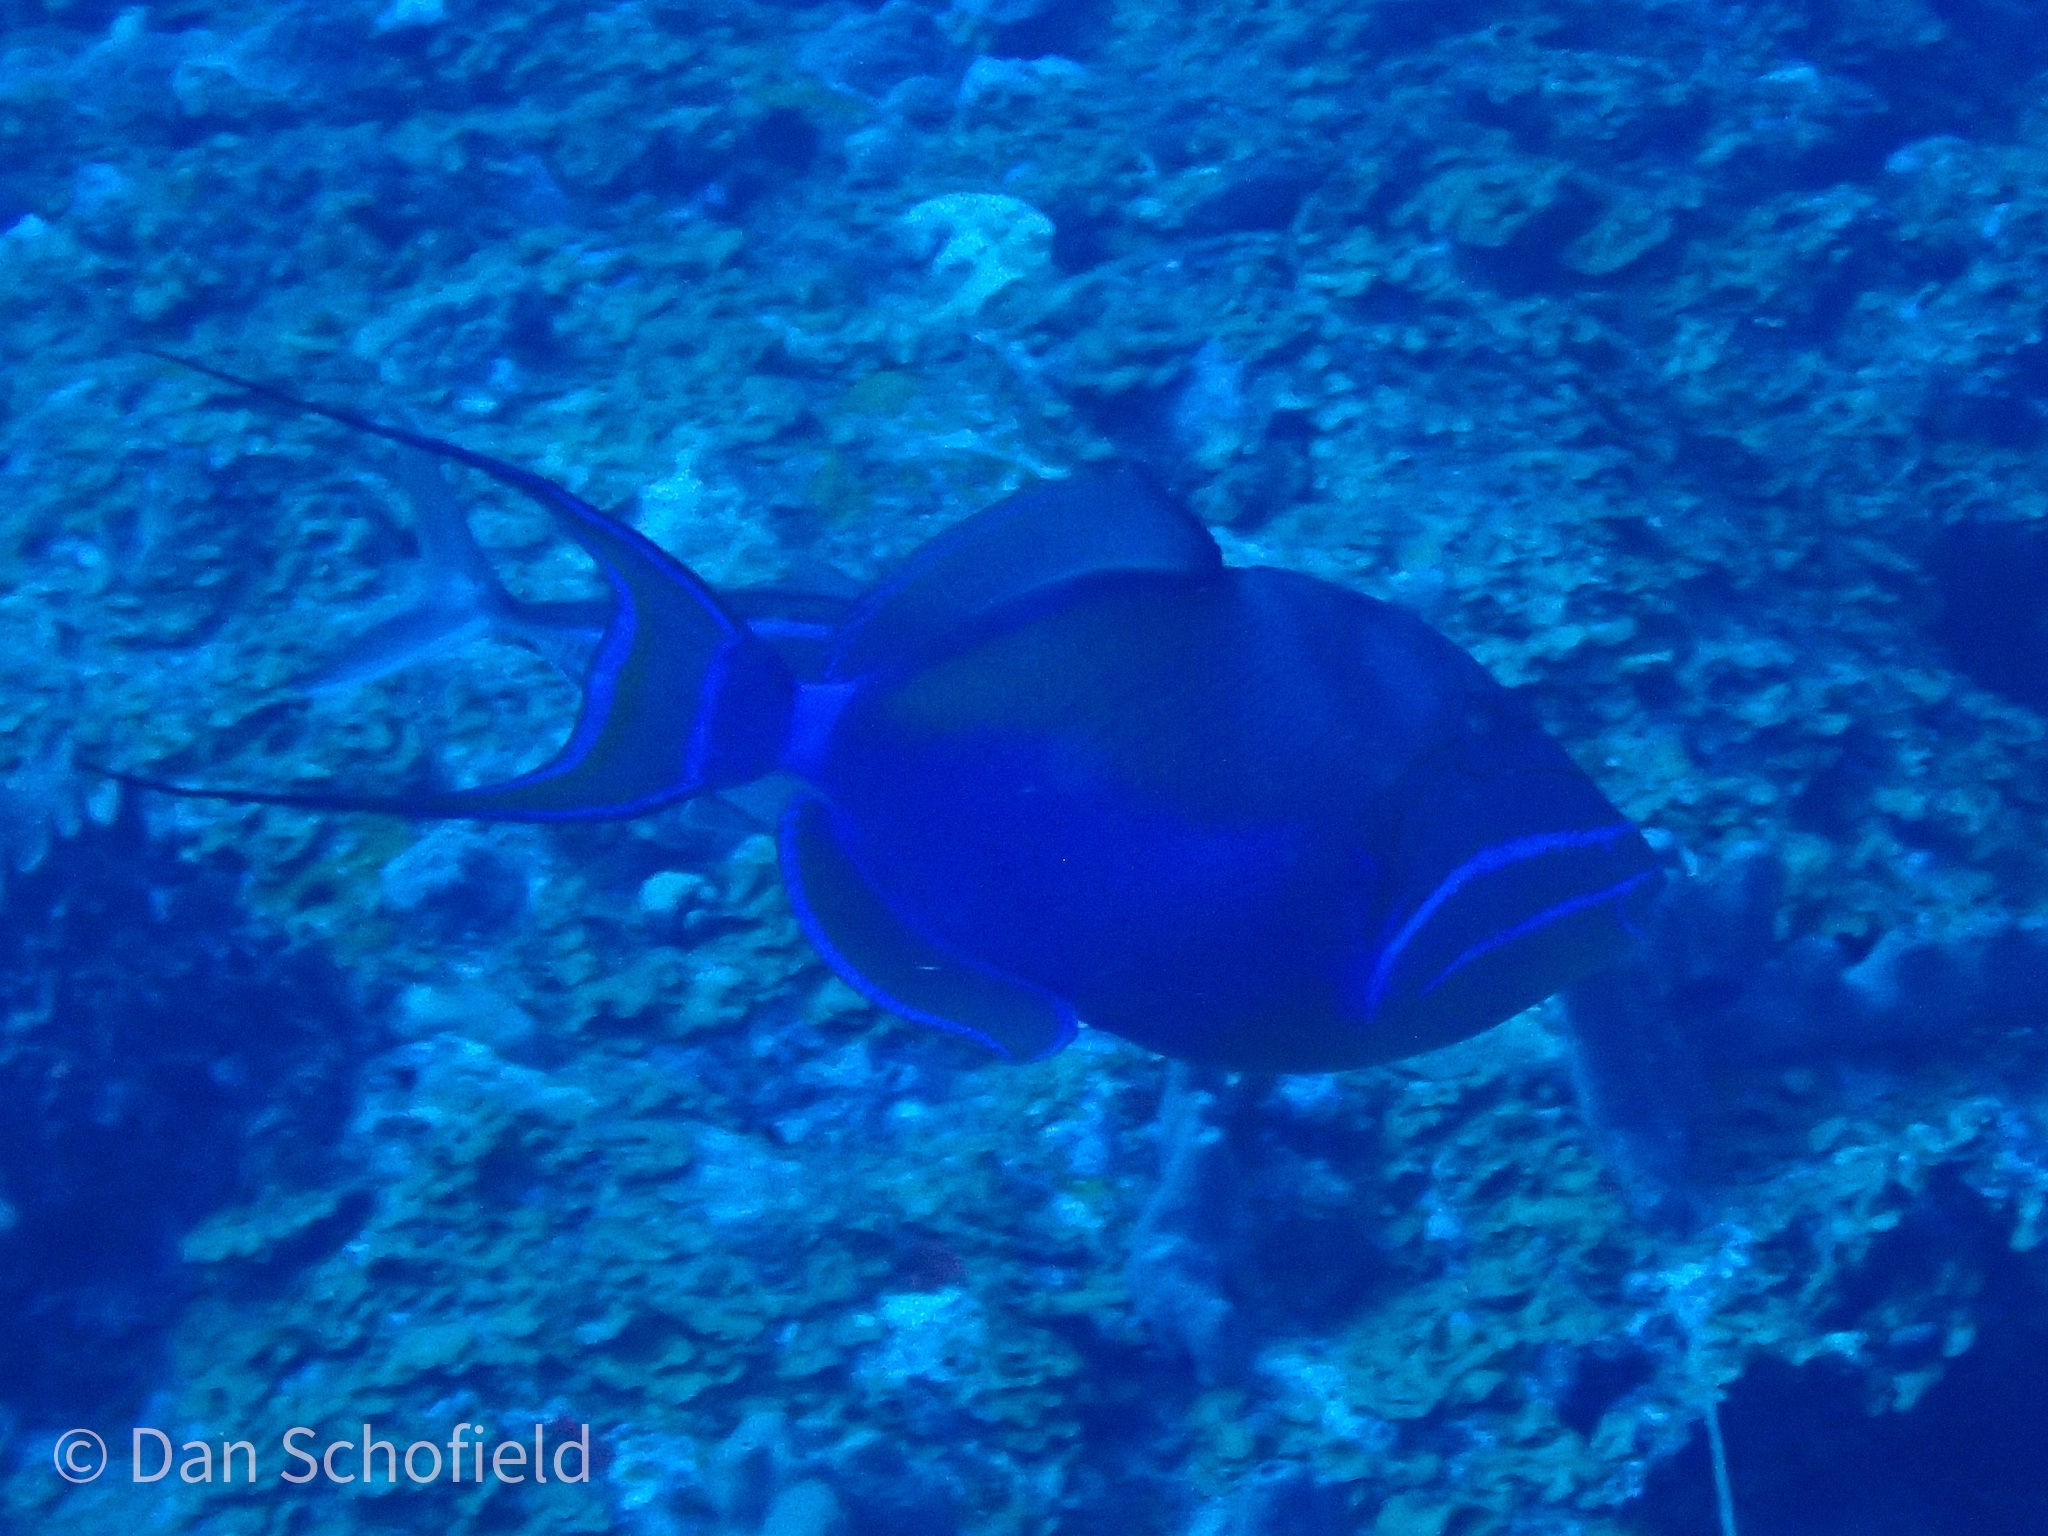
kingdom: Animalia
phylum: Chordata
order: Tetraodontiformes
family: Balistidae
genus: Balistes
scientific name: Balistes vetula
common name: Queen triggerfish
